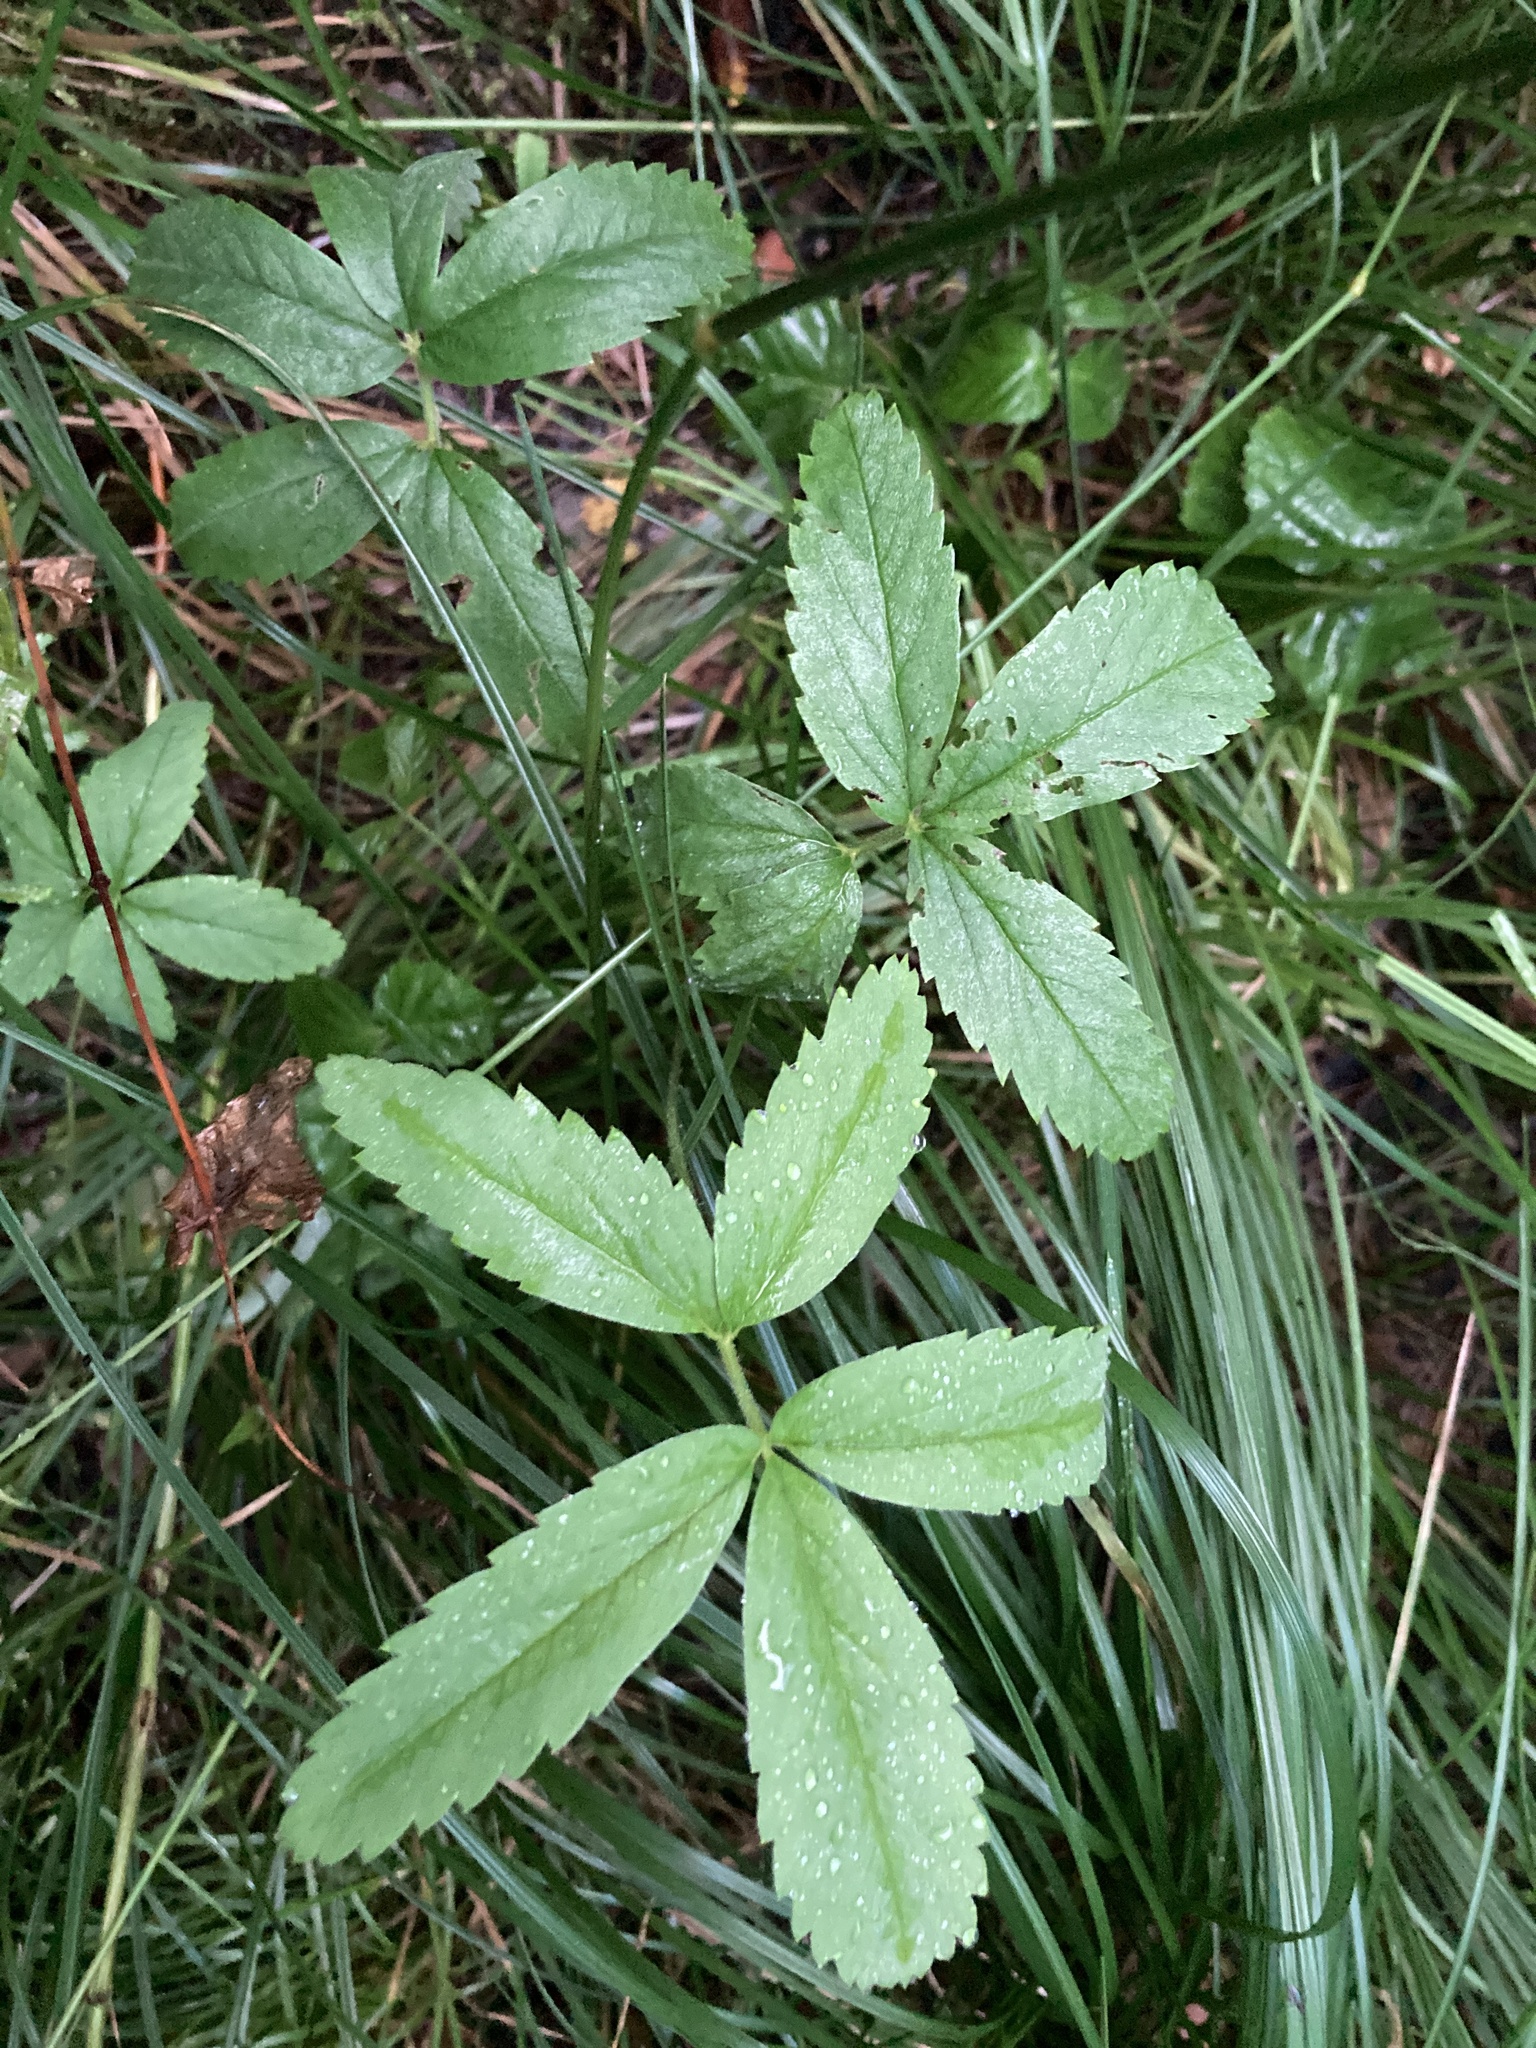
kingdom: Plantae
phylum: Tracheophyta
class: Magnoliopsida
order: Rosales
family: Rosaceae
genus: Comarum
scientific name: Comarum palustre
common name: Marsh cinquefoil
